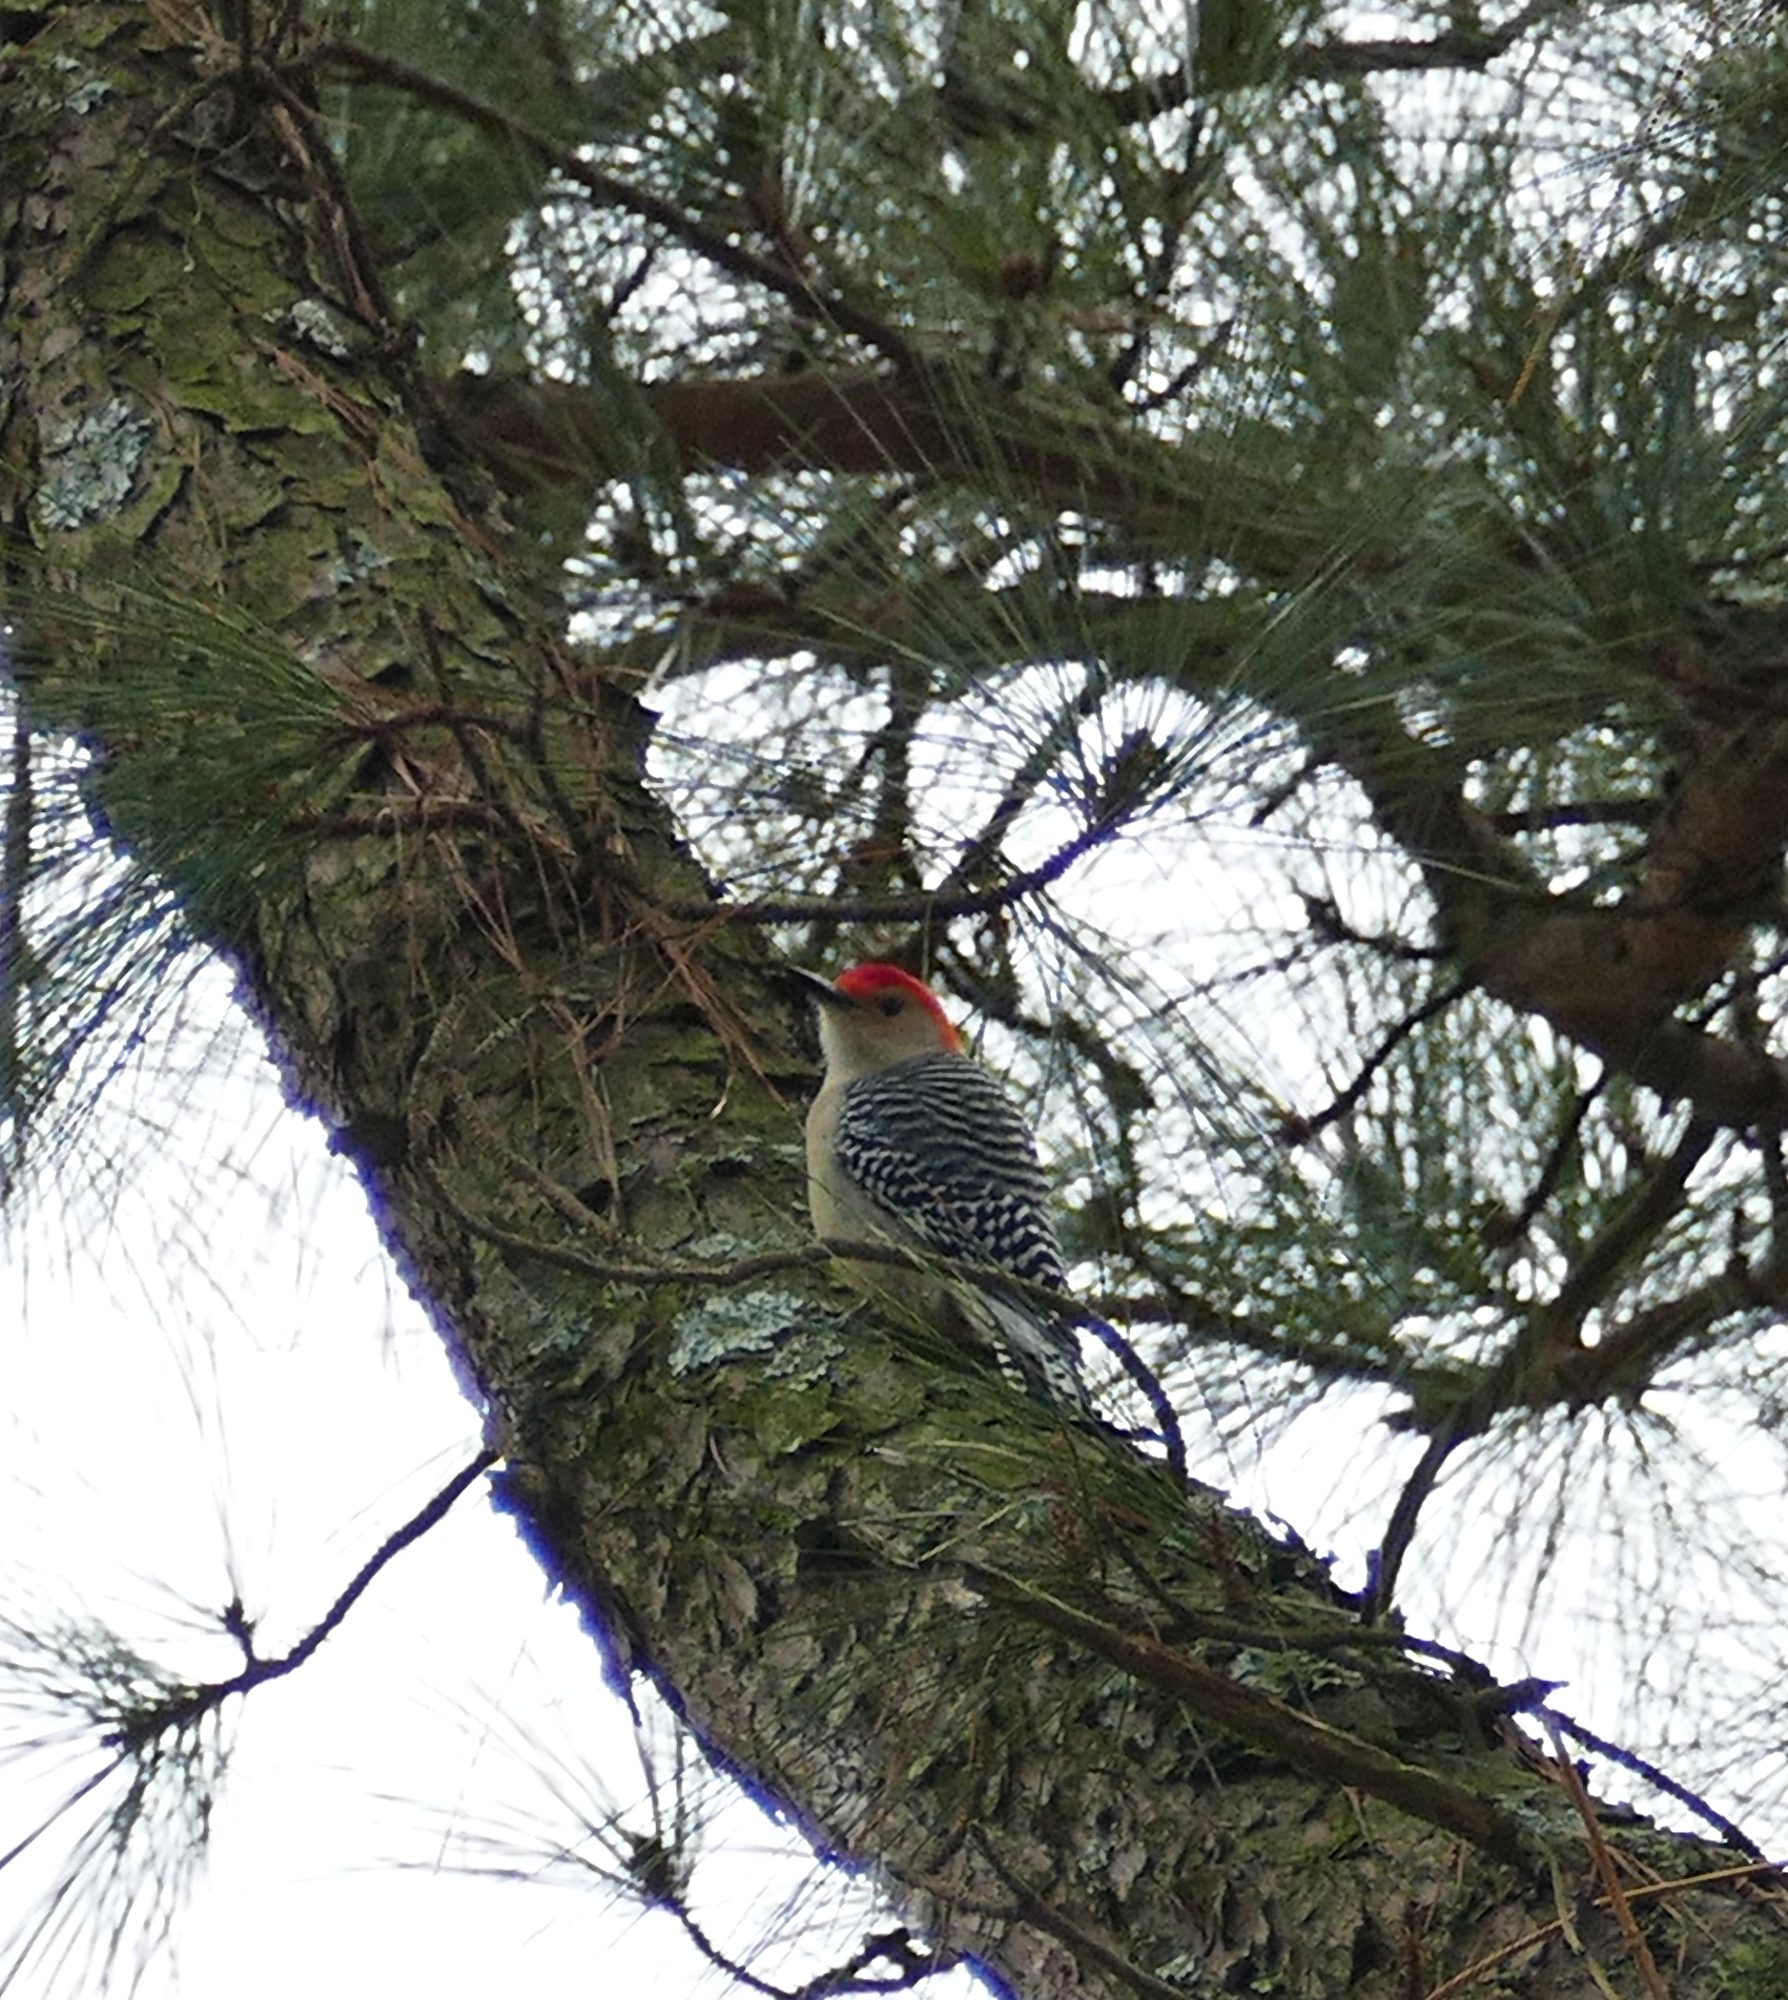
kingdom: Animalia
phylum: Chordata
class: Aves
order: Piciformes
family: Picidae
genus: Melanerpes
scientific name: Melanerpes carolinus
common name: Red-bellied woodpecker
